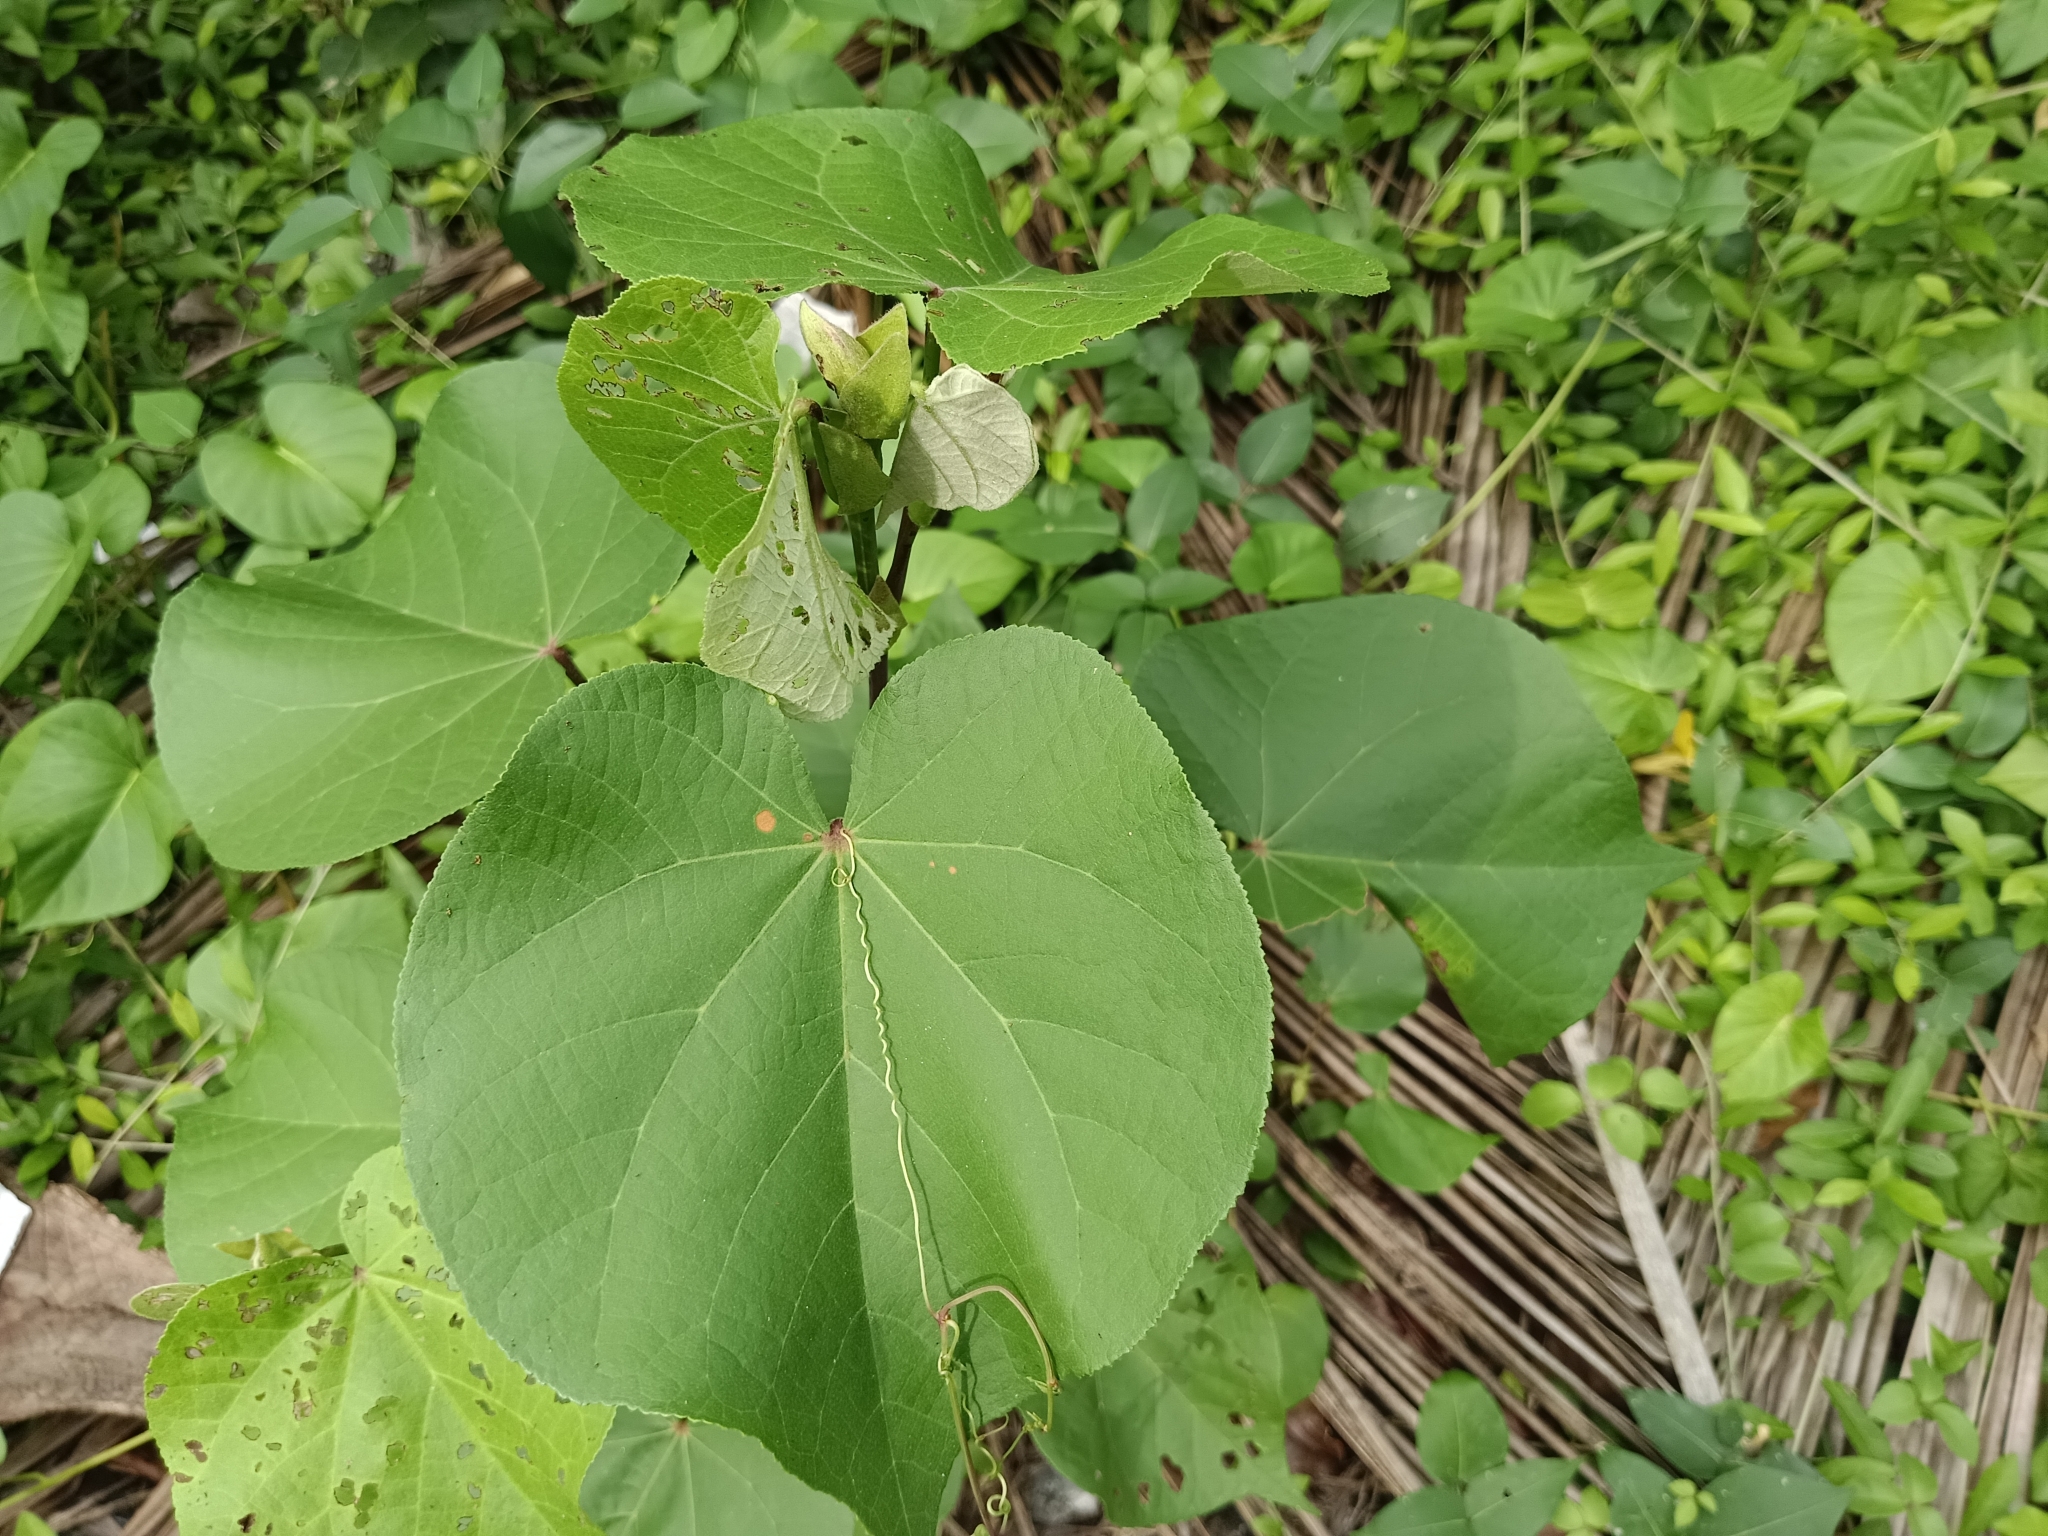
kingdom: Plantae
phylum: Tracheophyta
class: Magnoliopsida
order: Malvales
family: Malvaceae
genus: Talipariti
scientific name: Talipariti tiliaceum
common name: Sea hibiscus
